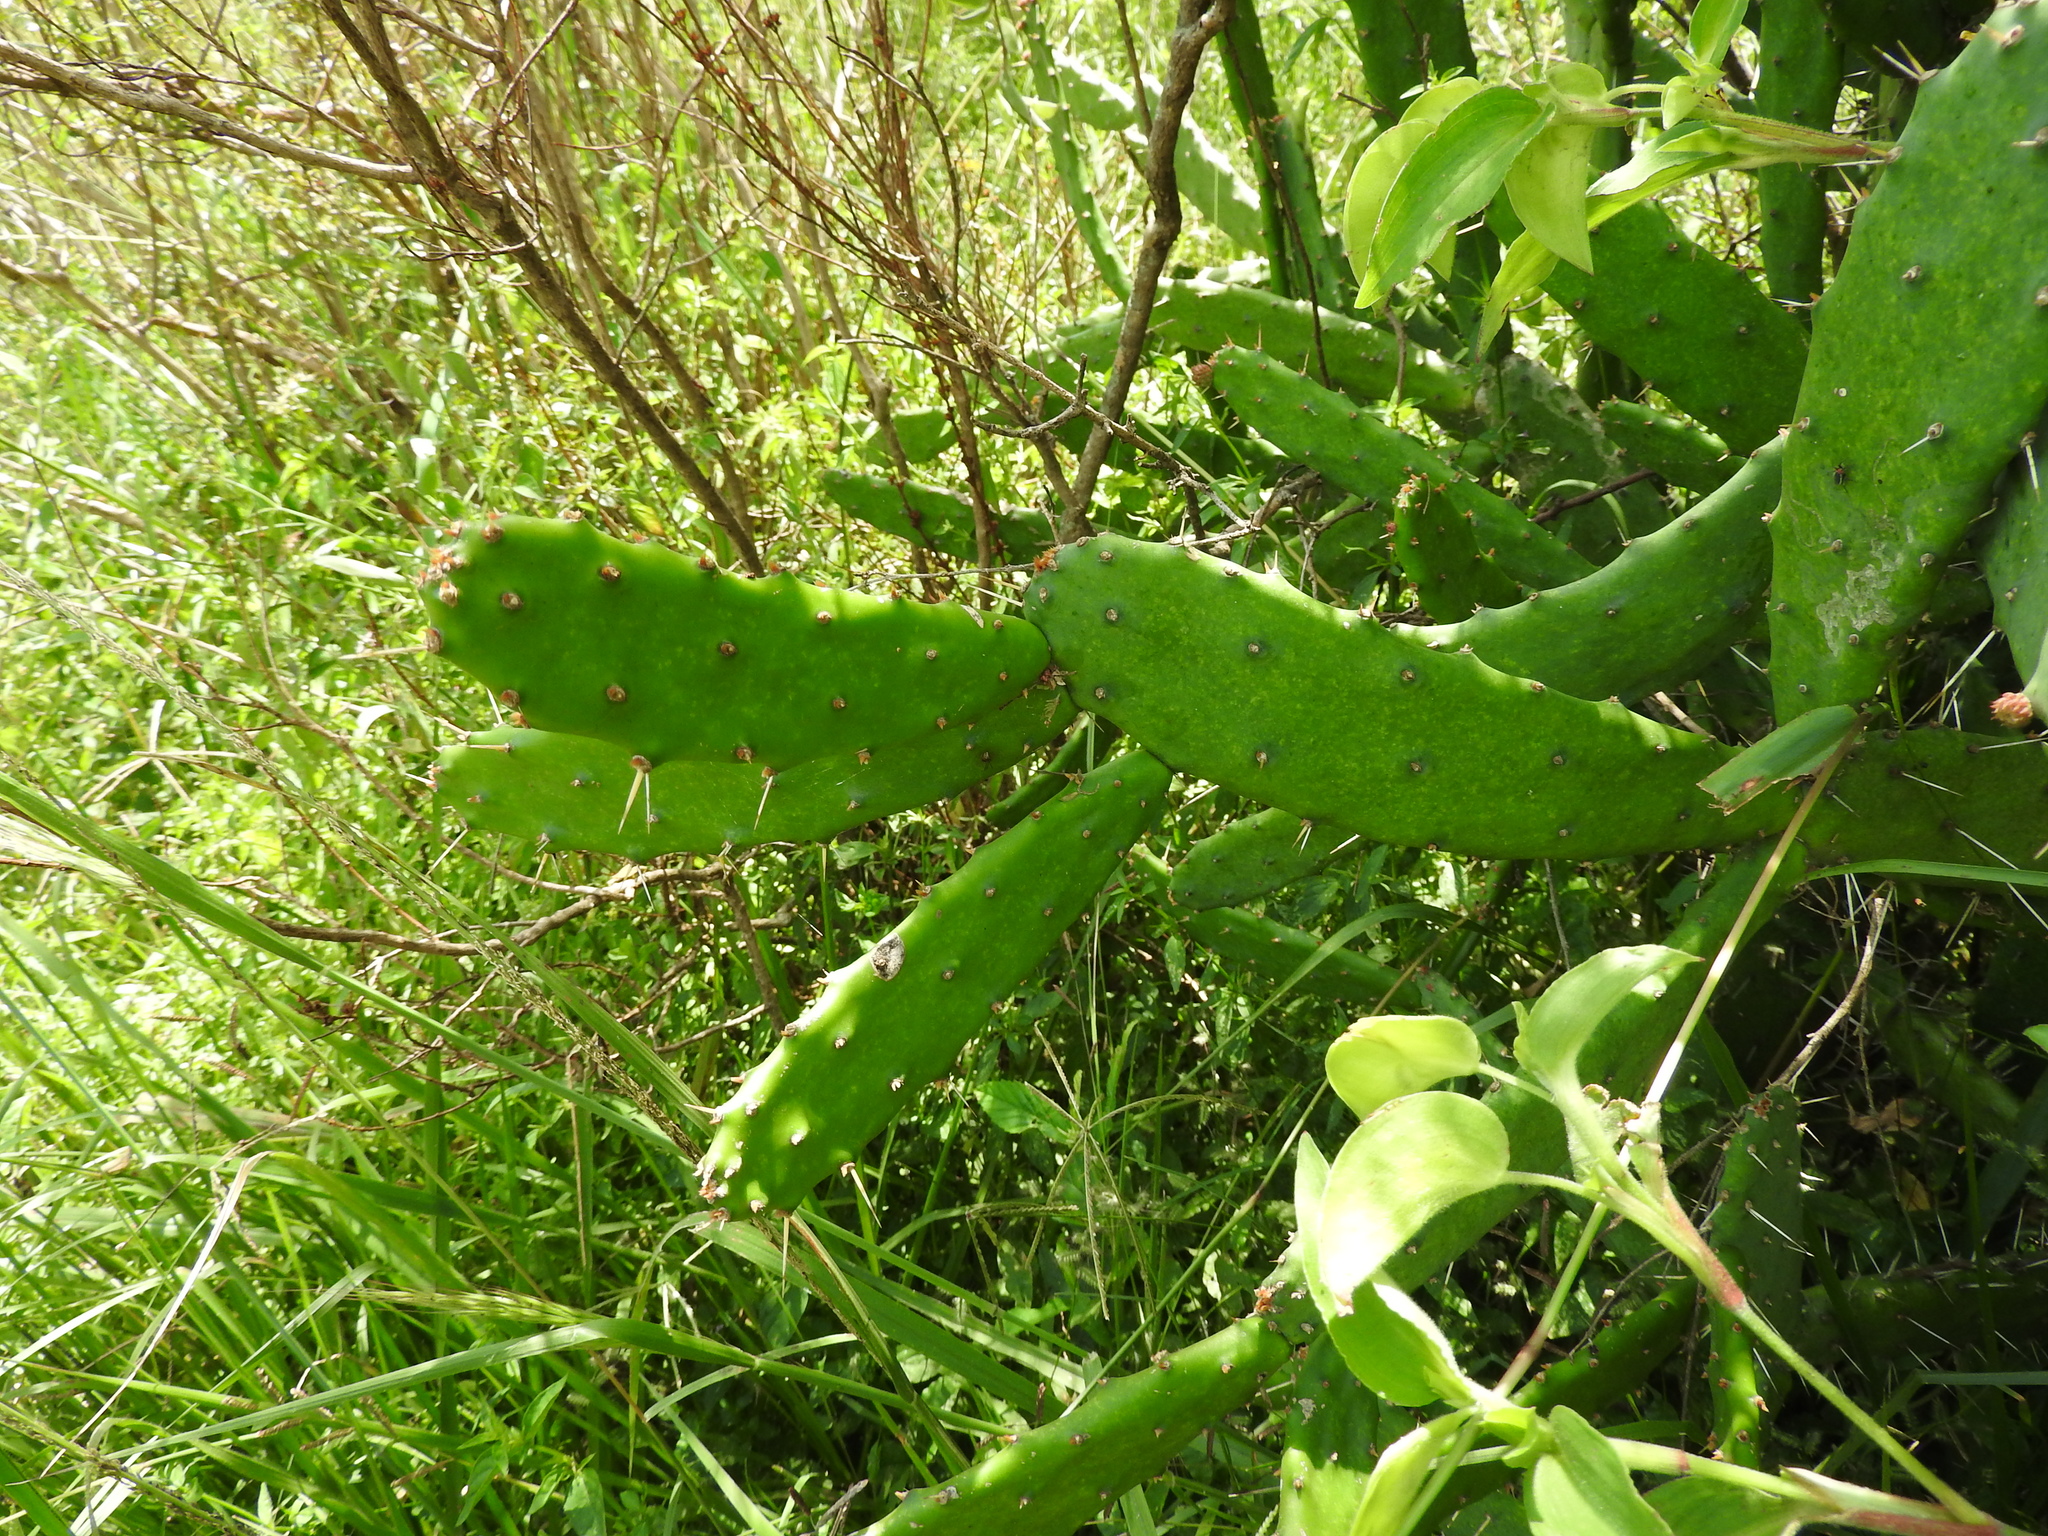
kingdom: Plantae
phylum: Tracheophyta
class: Magnoliopsida
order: Caryophyllales
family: Cactaceae
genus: Opuntia
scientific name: Opuntia tomentosa
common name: Woollyjoint pricklypear
